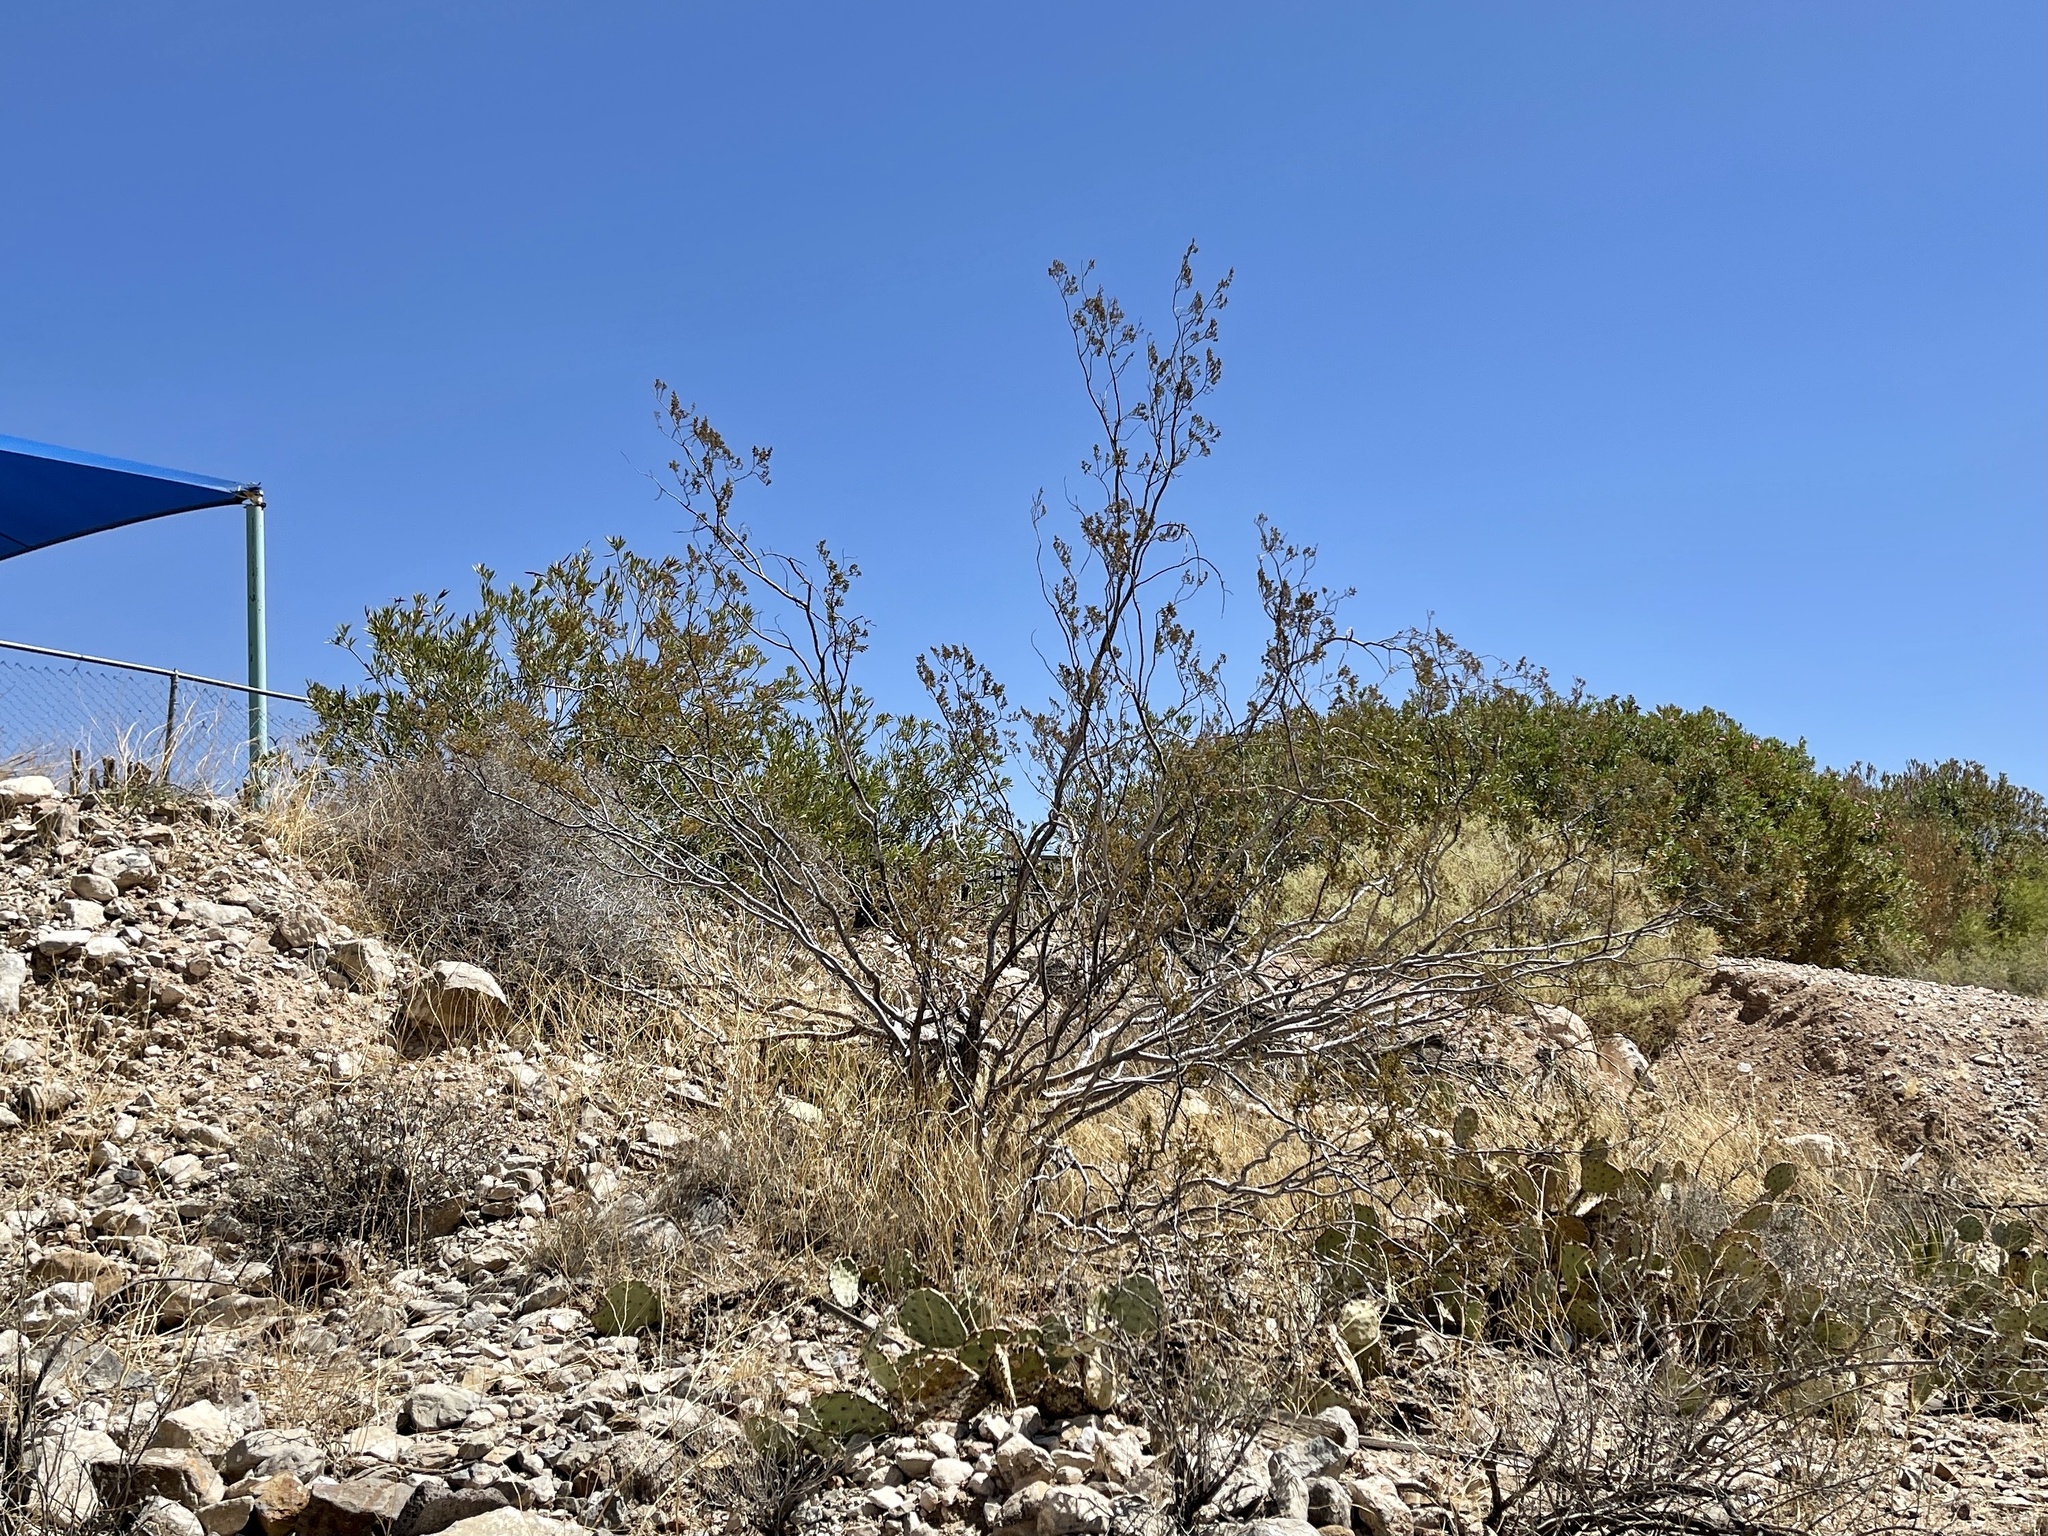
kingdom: Plantae
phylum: Tracheophyta
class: Magnoliopsida
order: Zygophyllales
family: Zygophyllaceae
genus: Larrea
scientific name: Larrea tridentata
